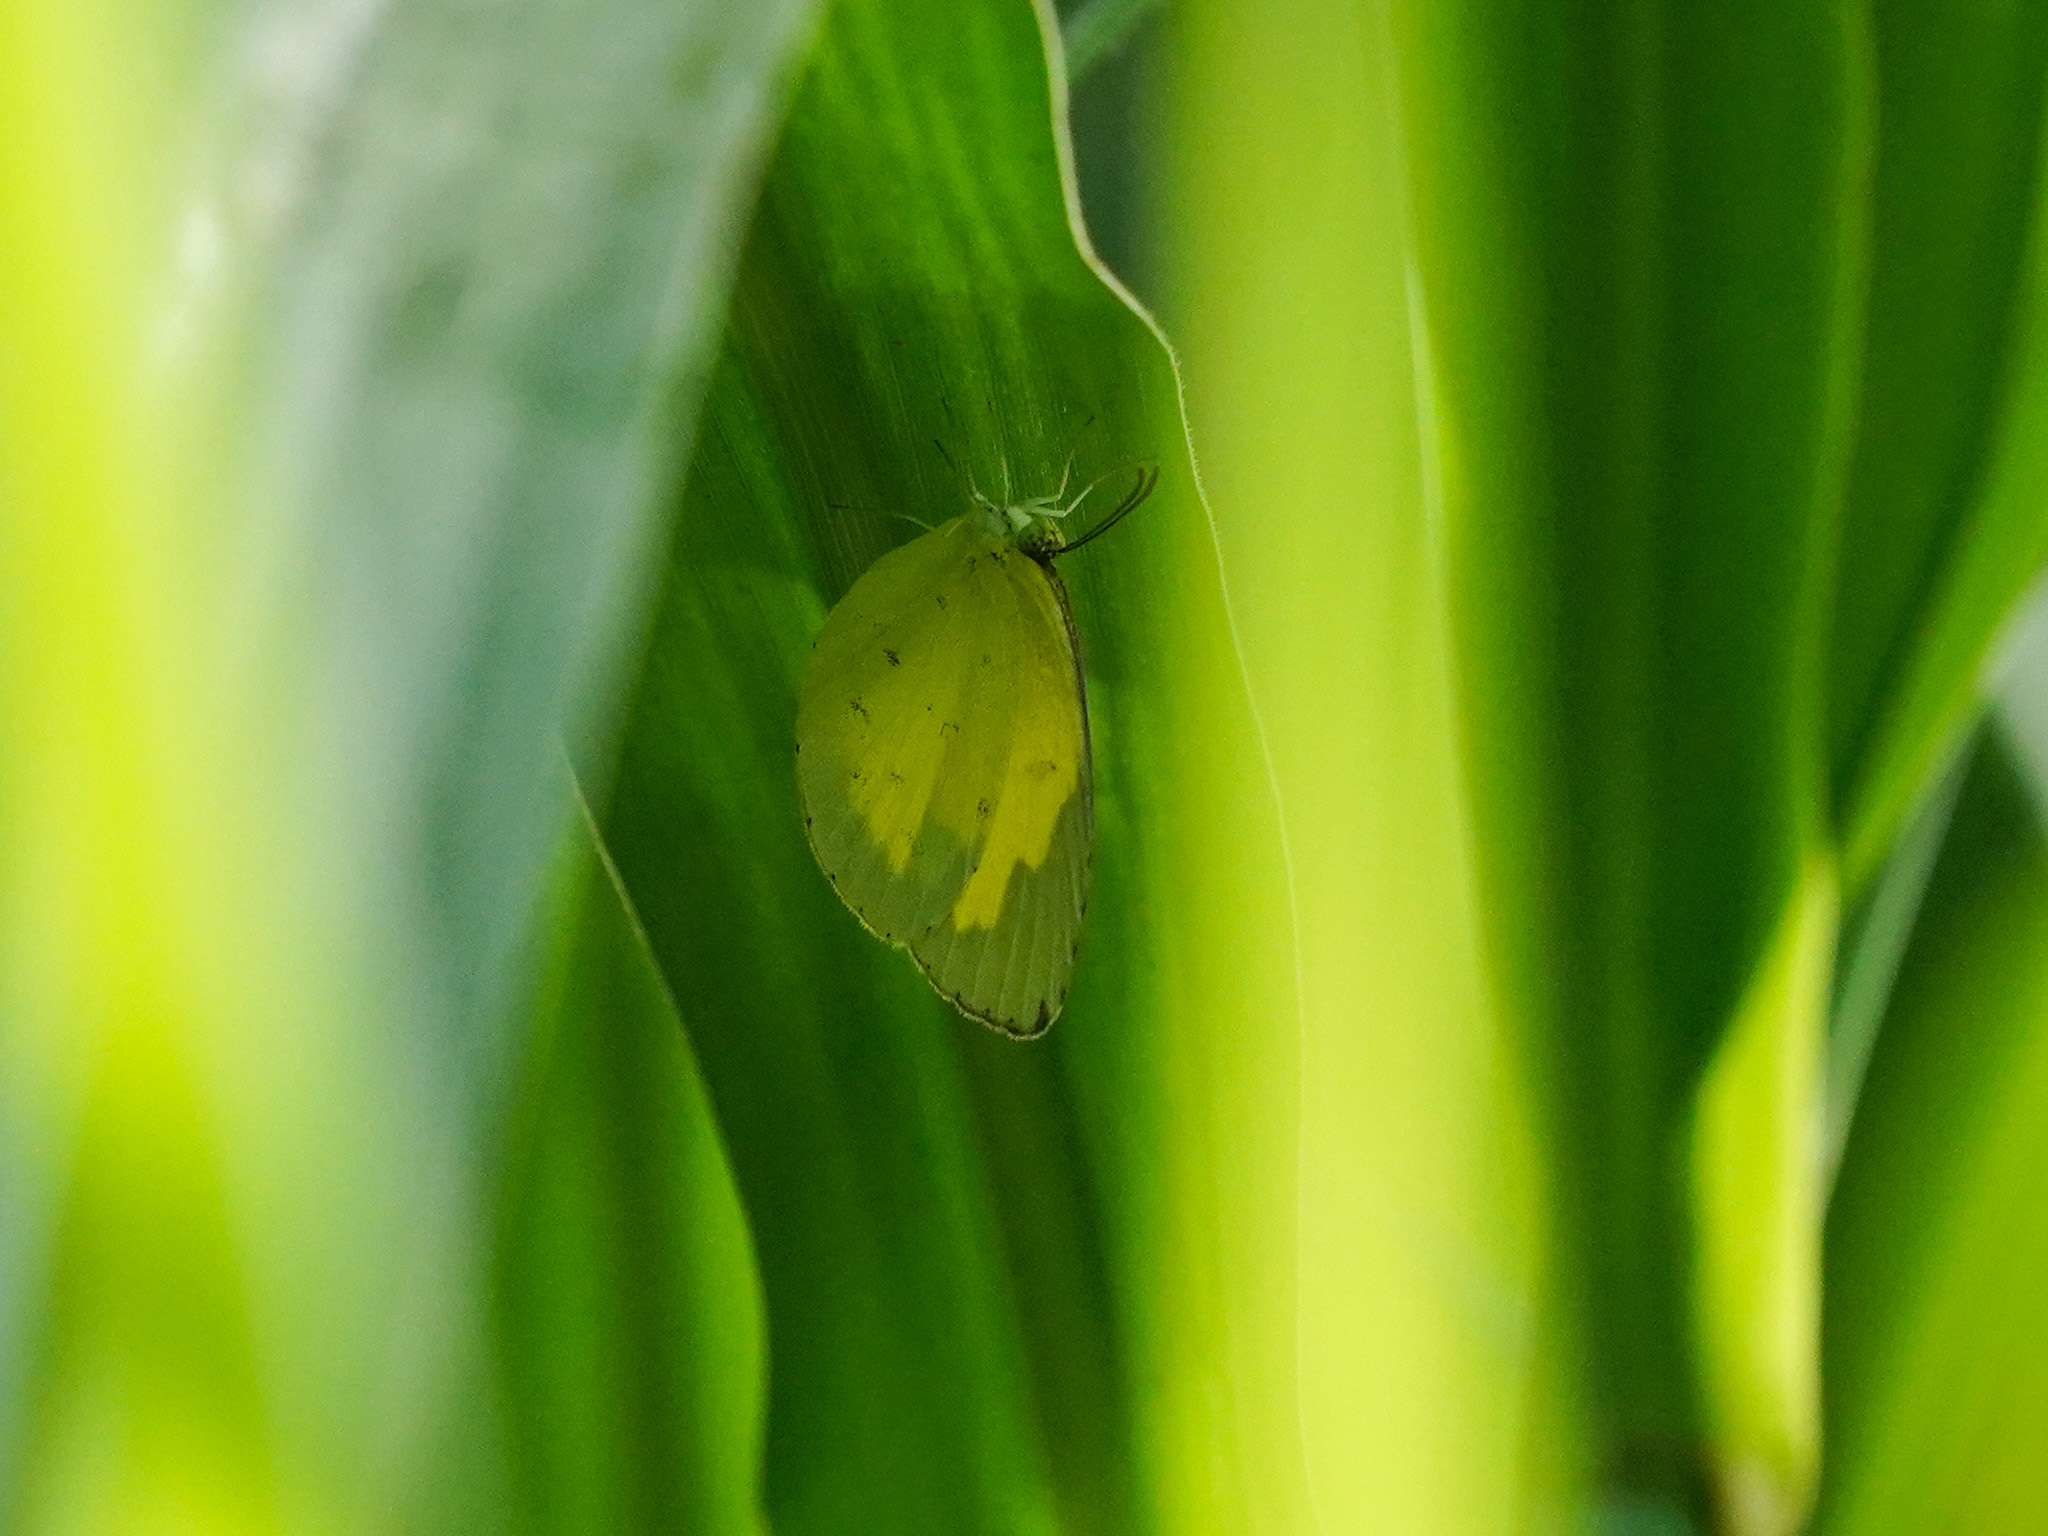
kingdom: Animalia
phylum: Arthropoda
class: Insecta
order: Lepidoptera
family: Pieridae
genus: Eurema
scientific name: Eurema hecabe
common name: Pale grass yellow
